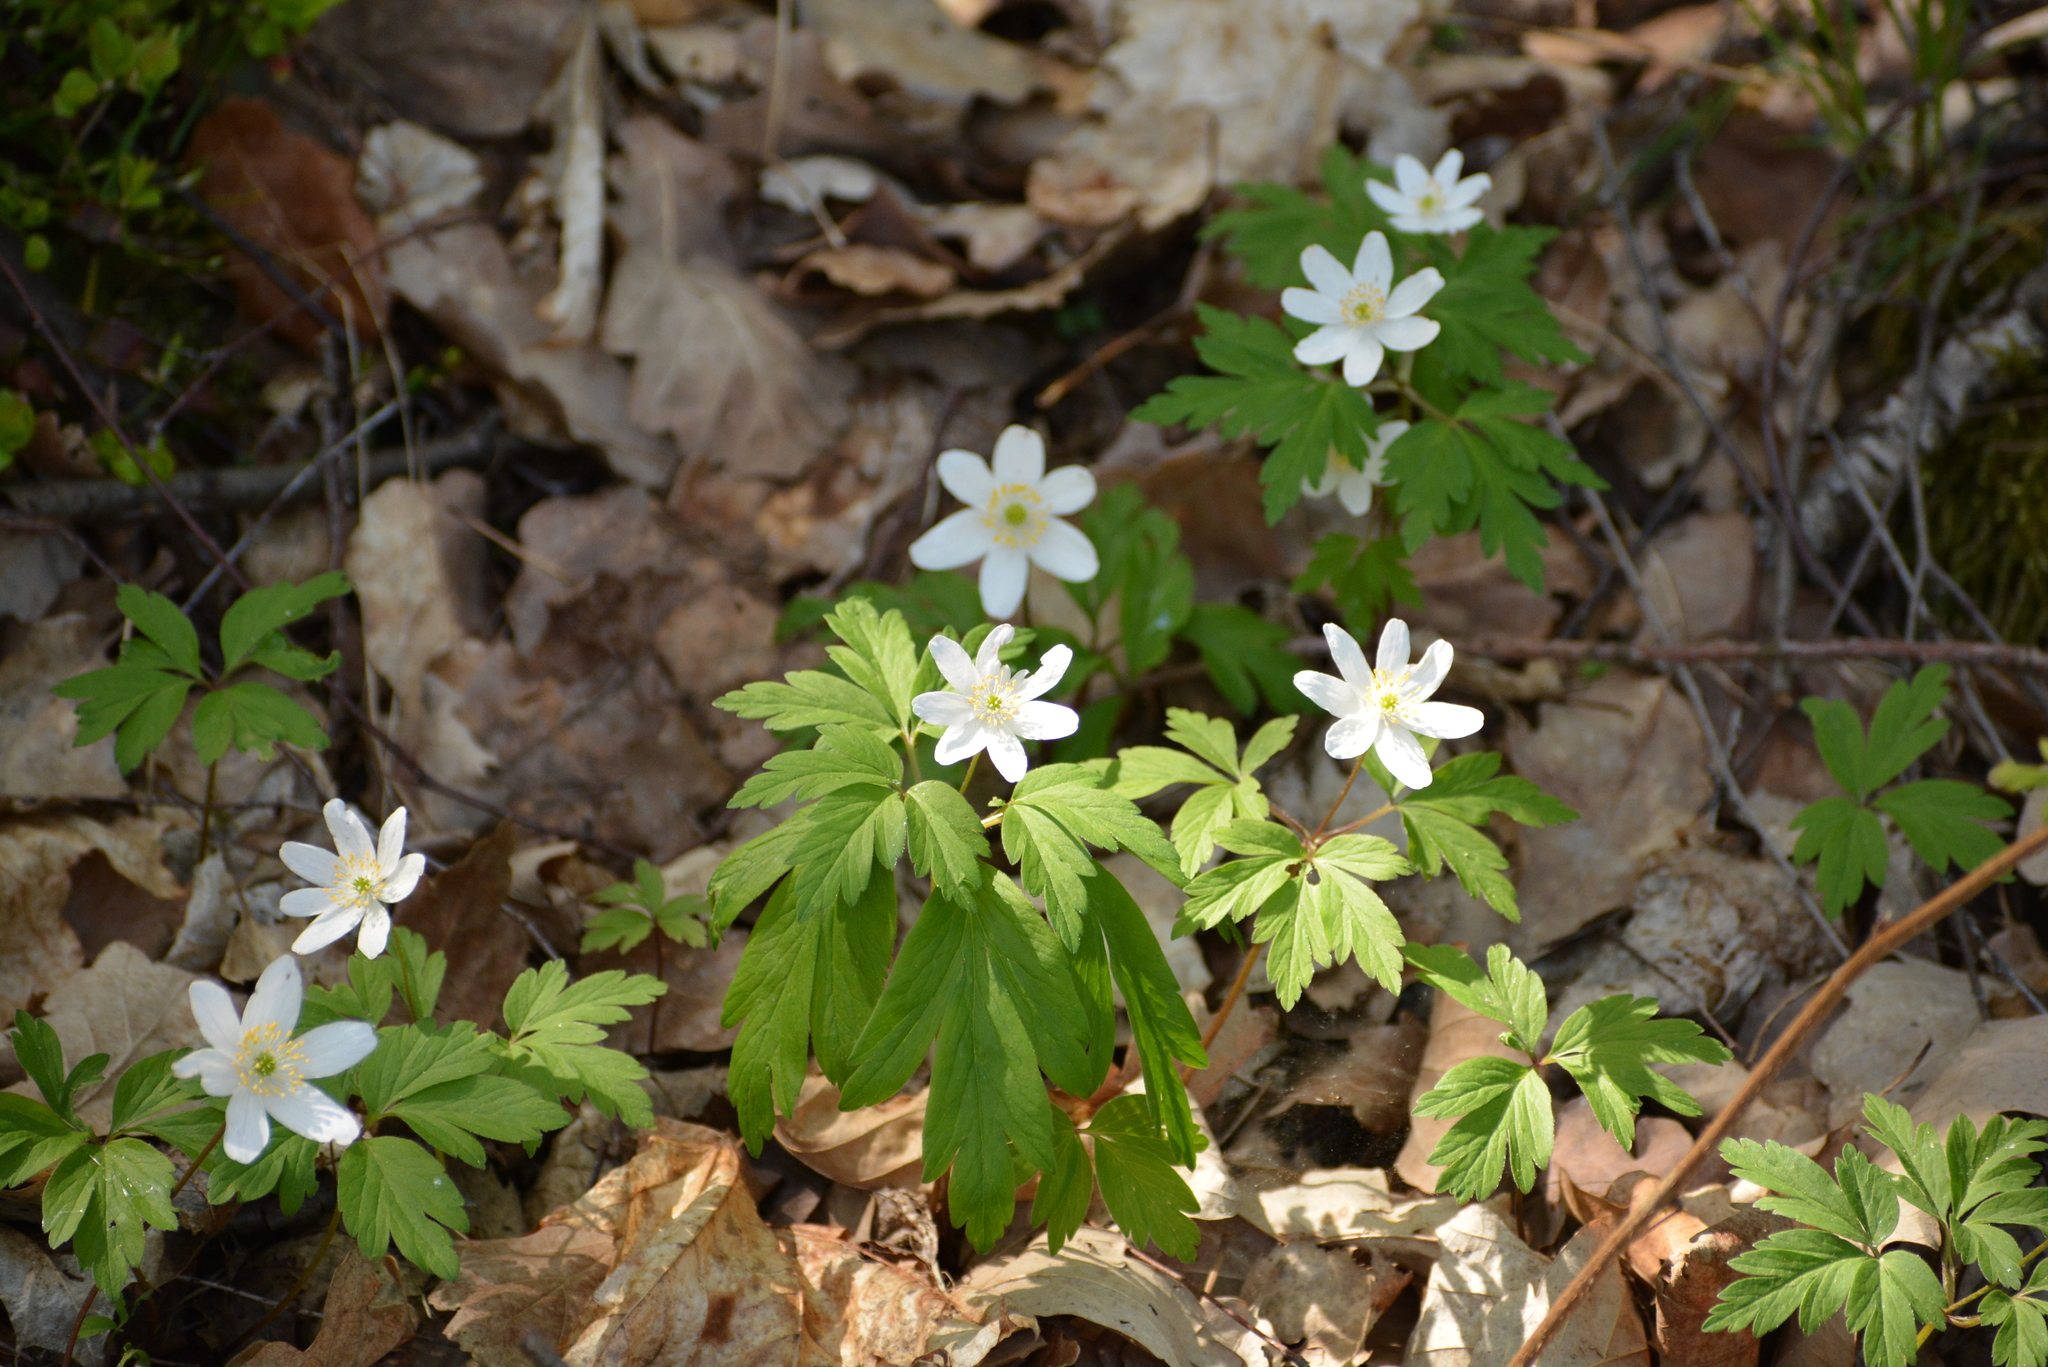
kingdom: Plantae
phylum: Tracheophyta
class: Magnoliopsida
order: Ranunculales
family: Ranunculaceae
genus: Anemone
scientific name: Anemone nemorosa
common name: Wood anemone
